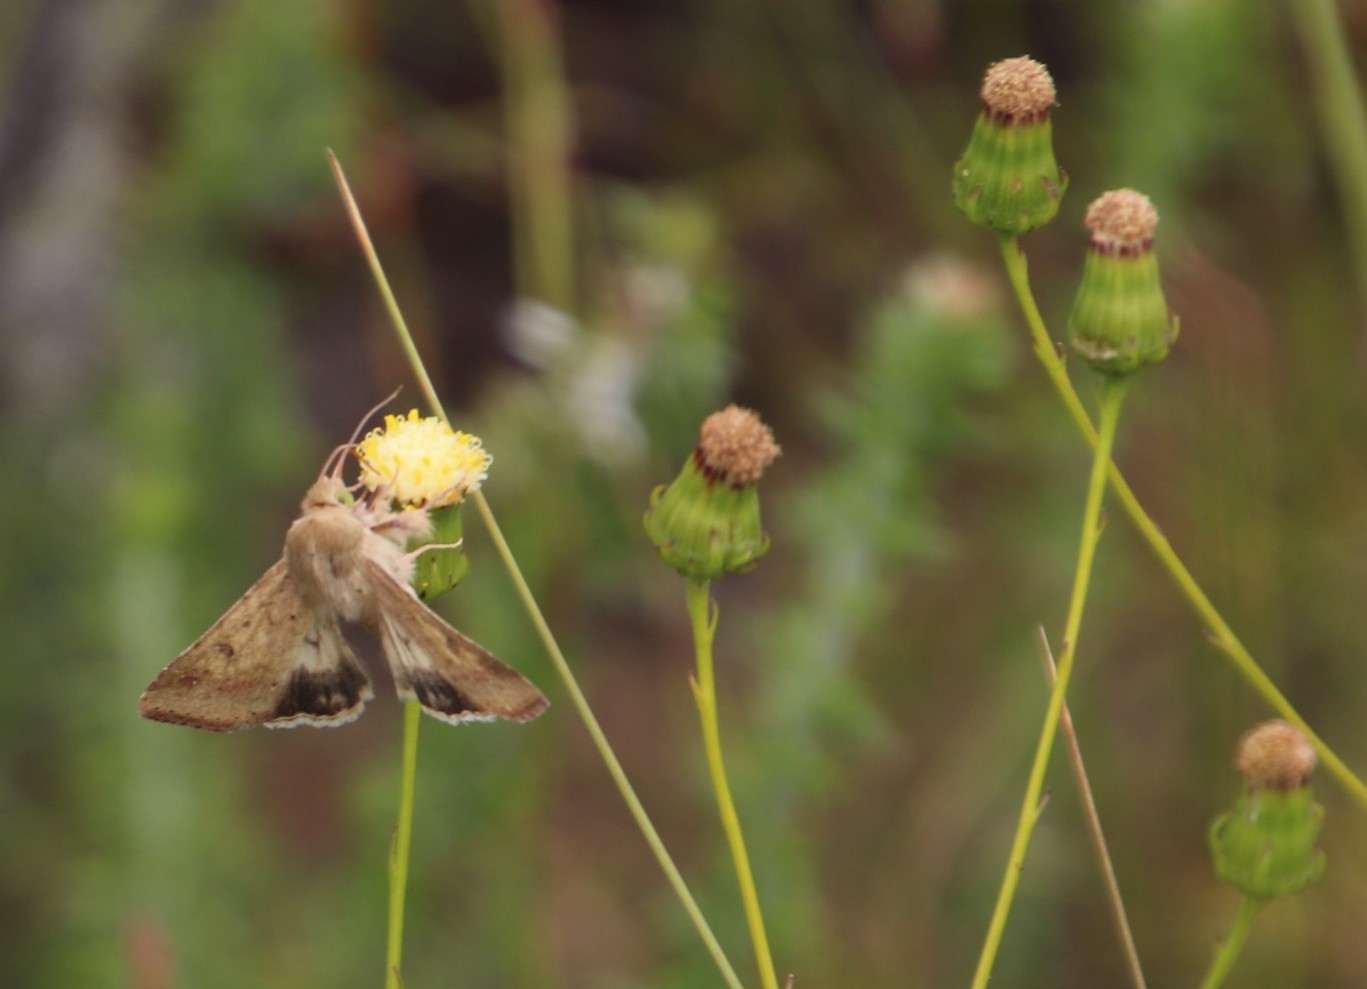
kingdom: Animalia
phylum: Arthropoda
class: Insecta
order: Lepidoptera
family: Noctuidae
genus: Helicoverpa
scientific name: Helicoverpa armigera
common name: Cotton bollworm
